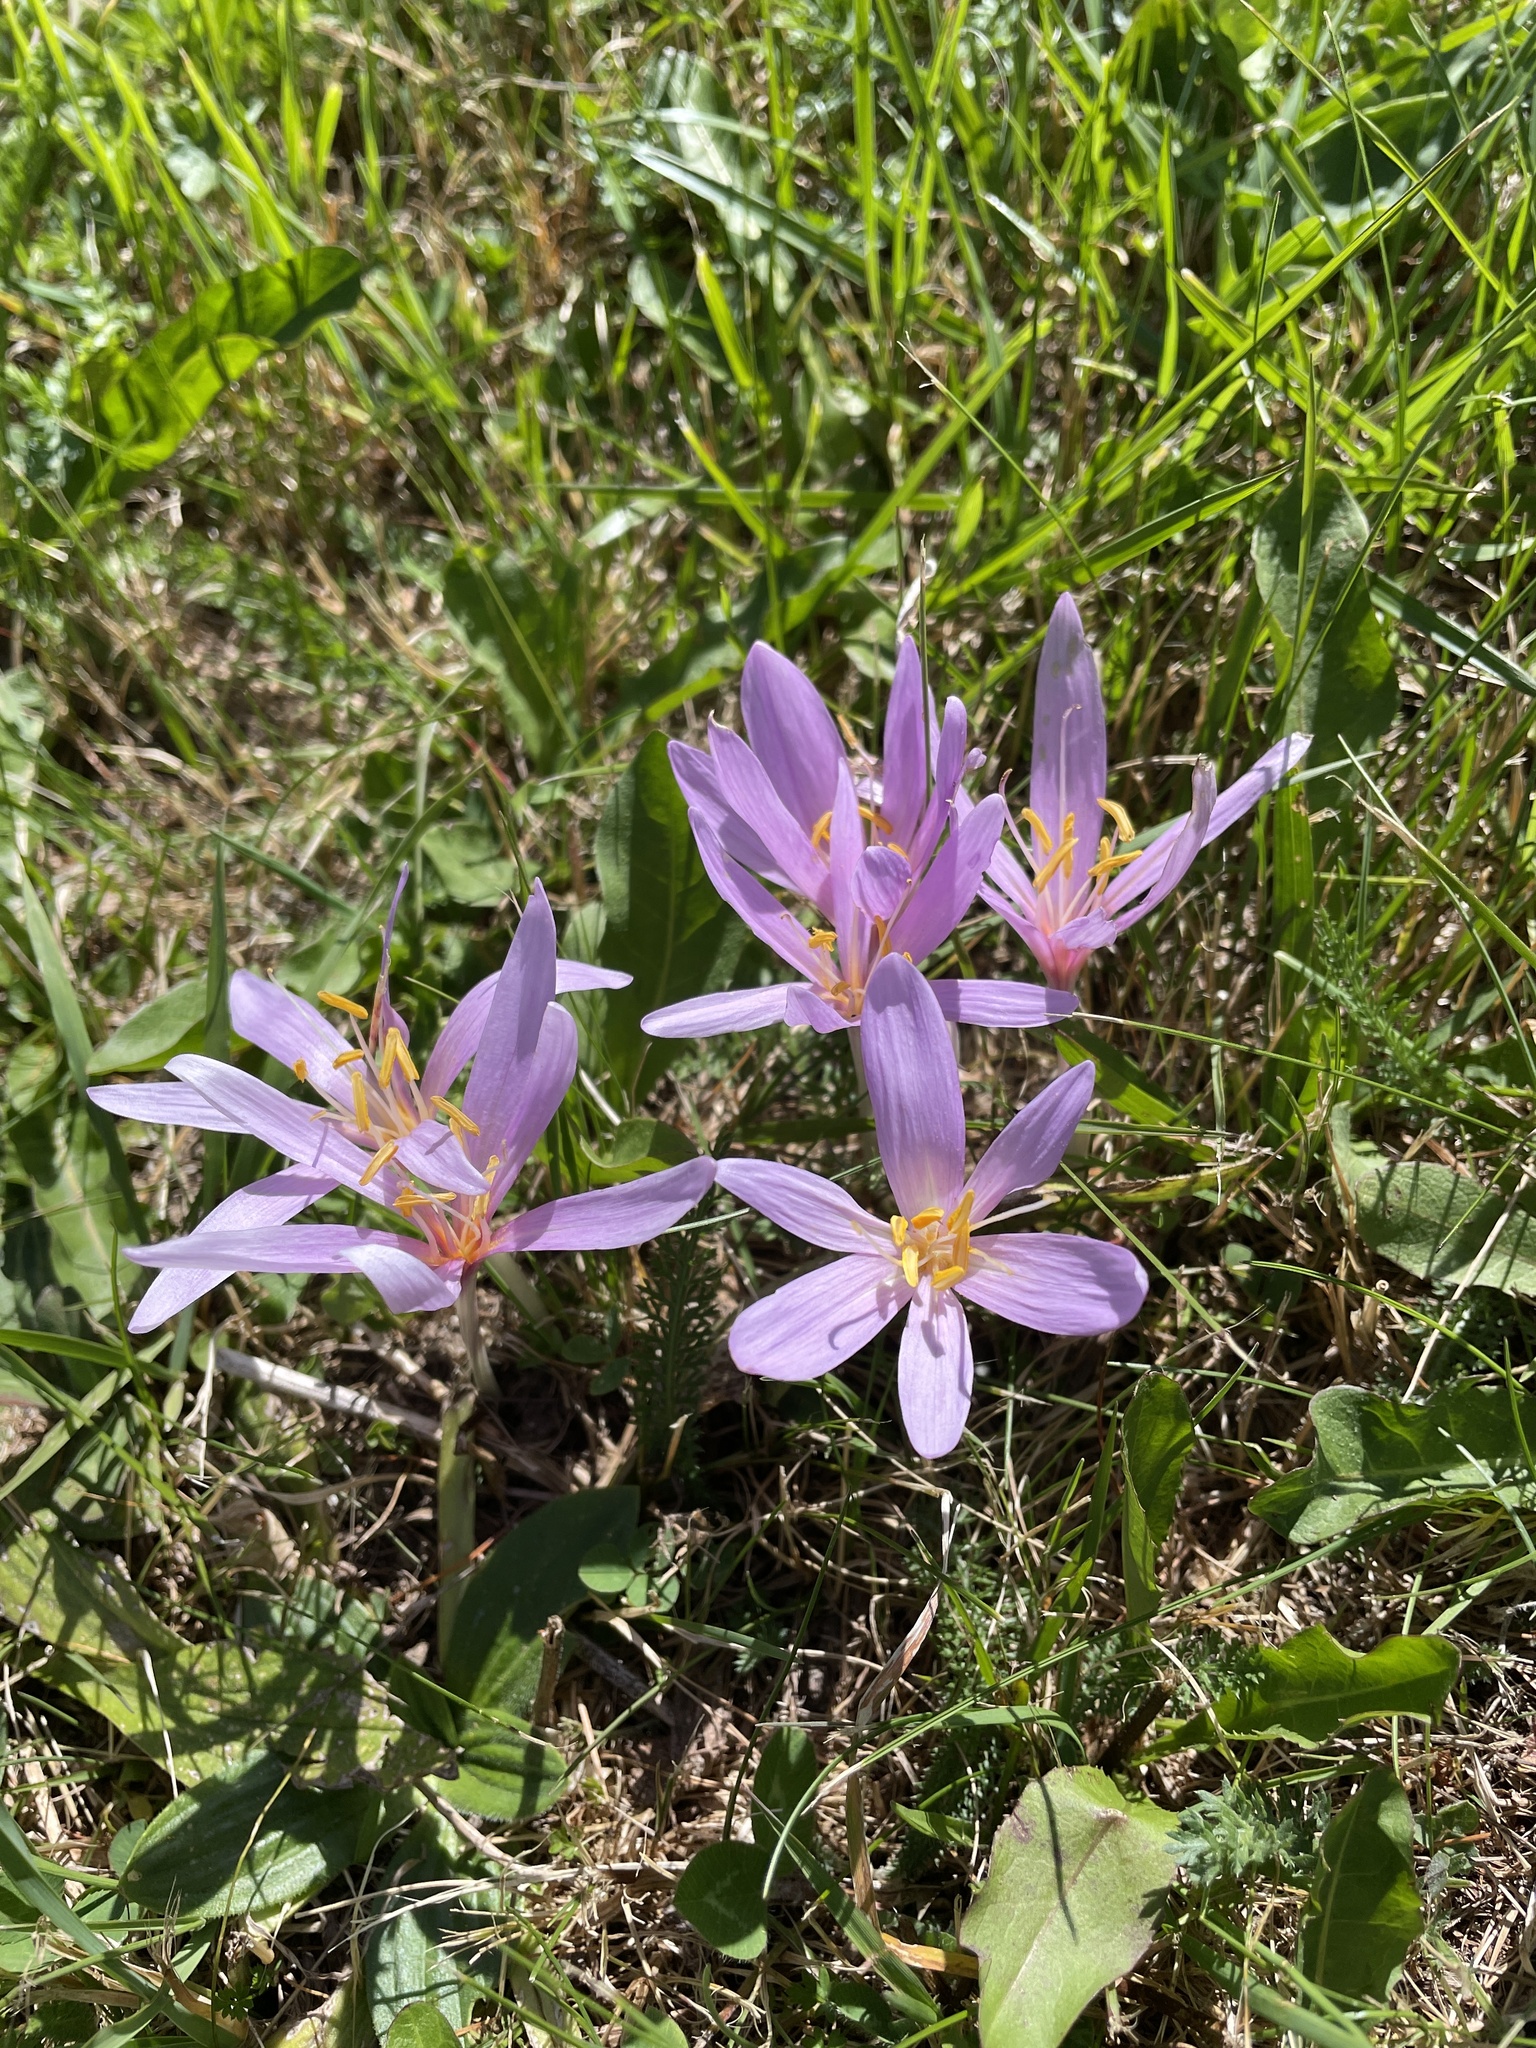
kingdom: Plantae
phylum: Tracheophyta
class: Liliopsida
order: Liliales
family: Colchicaceae
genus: Colchicum
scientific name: Colchicum autumnale
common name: Autumn crocus
